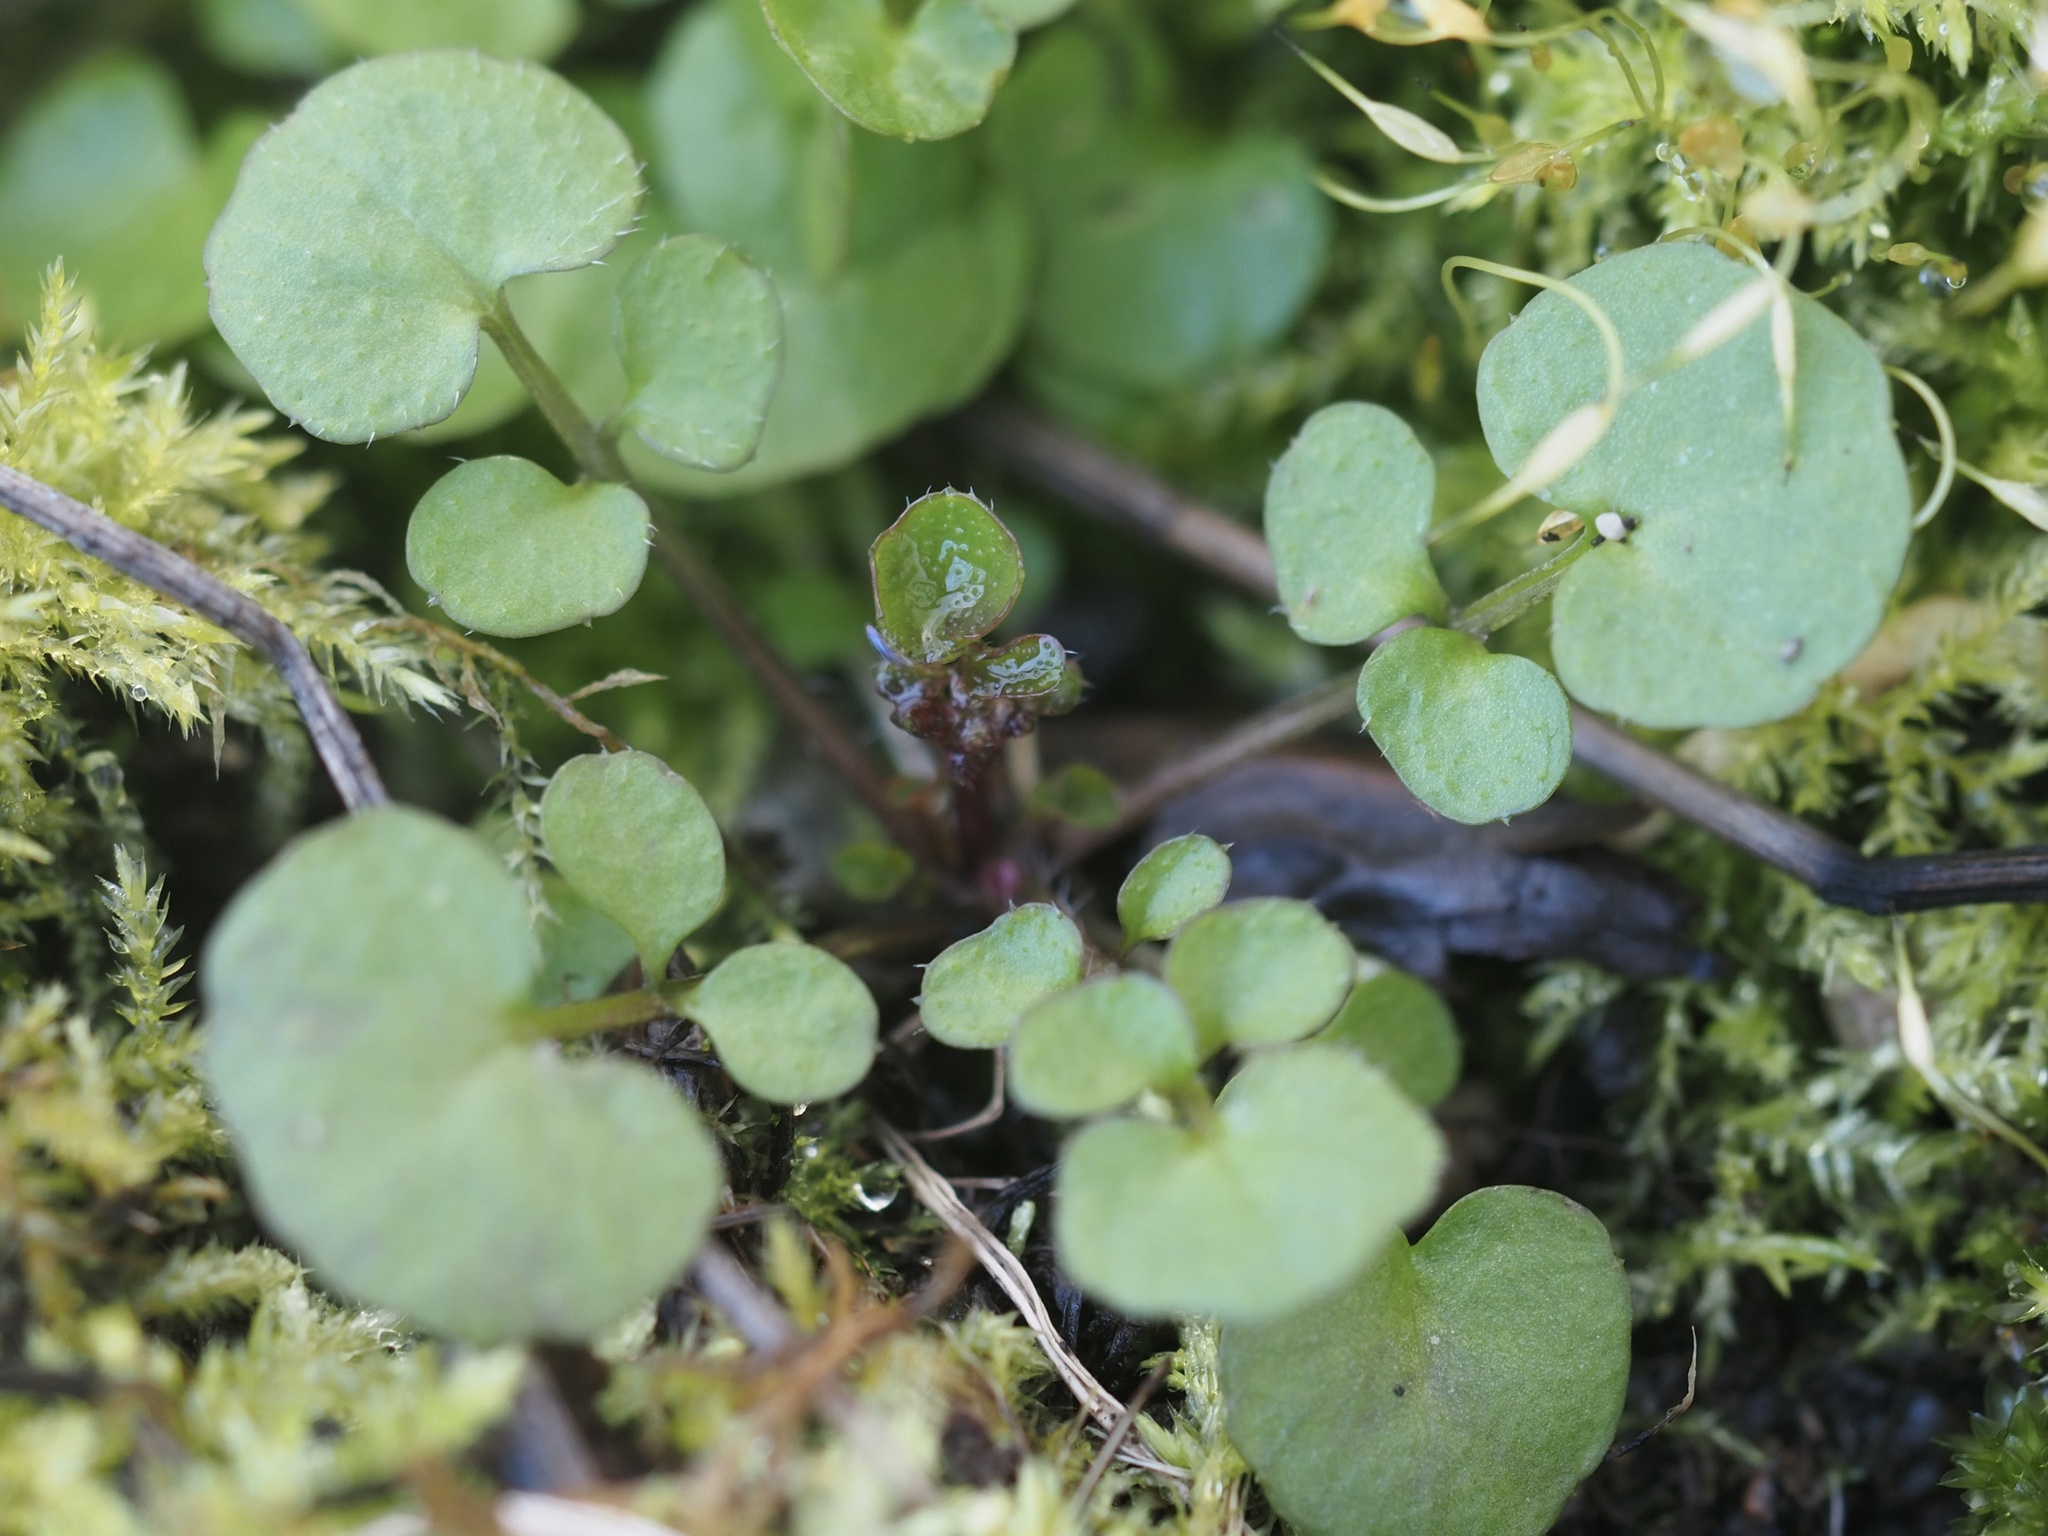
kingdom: Plantae
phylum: Tracheophyta
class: Magnoliopsida
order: Brassicales
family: Brassicaceae
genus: Cardamine
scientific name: Cardamine hirsuta
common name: Hairy bittercress
